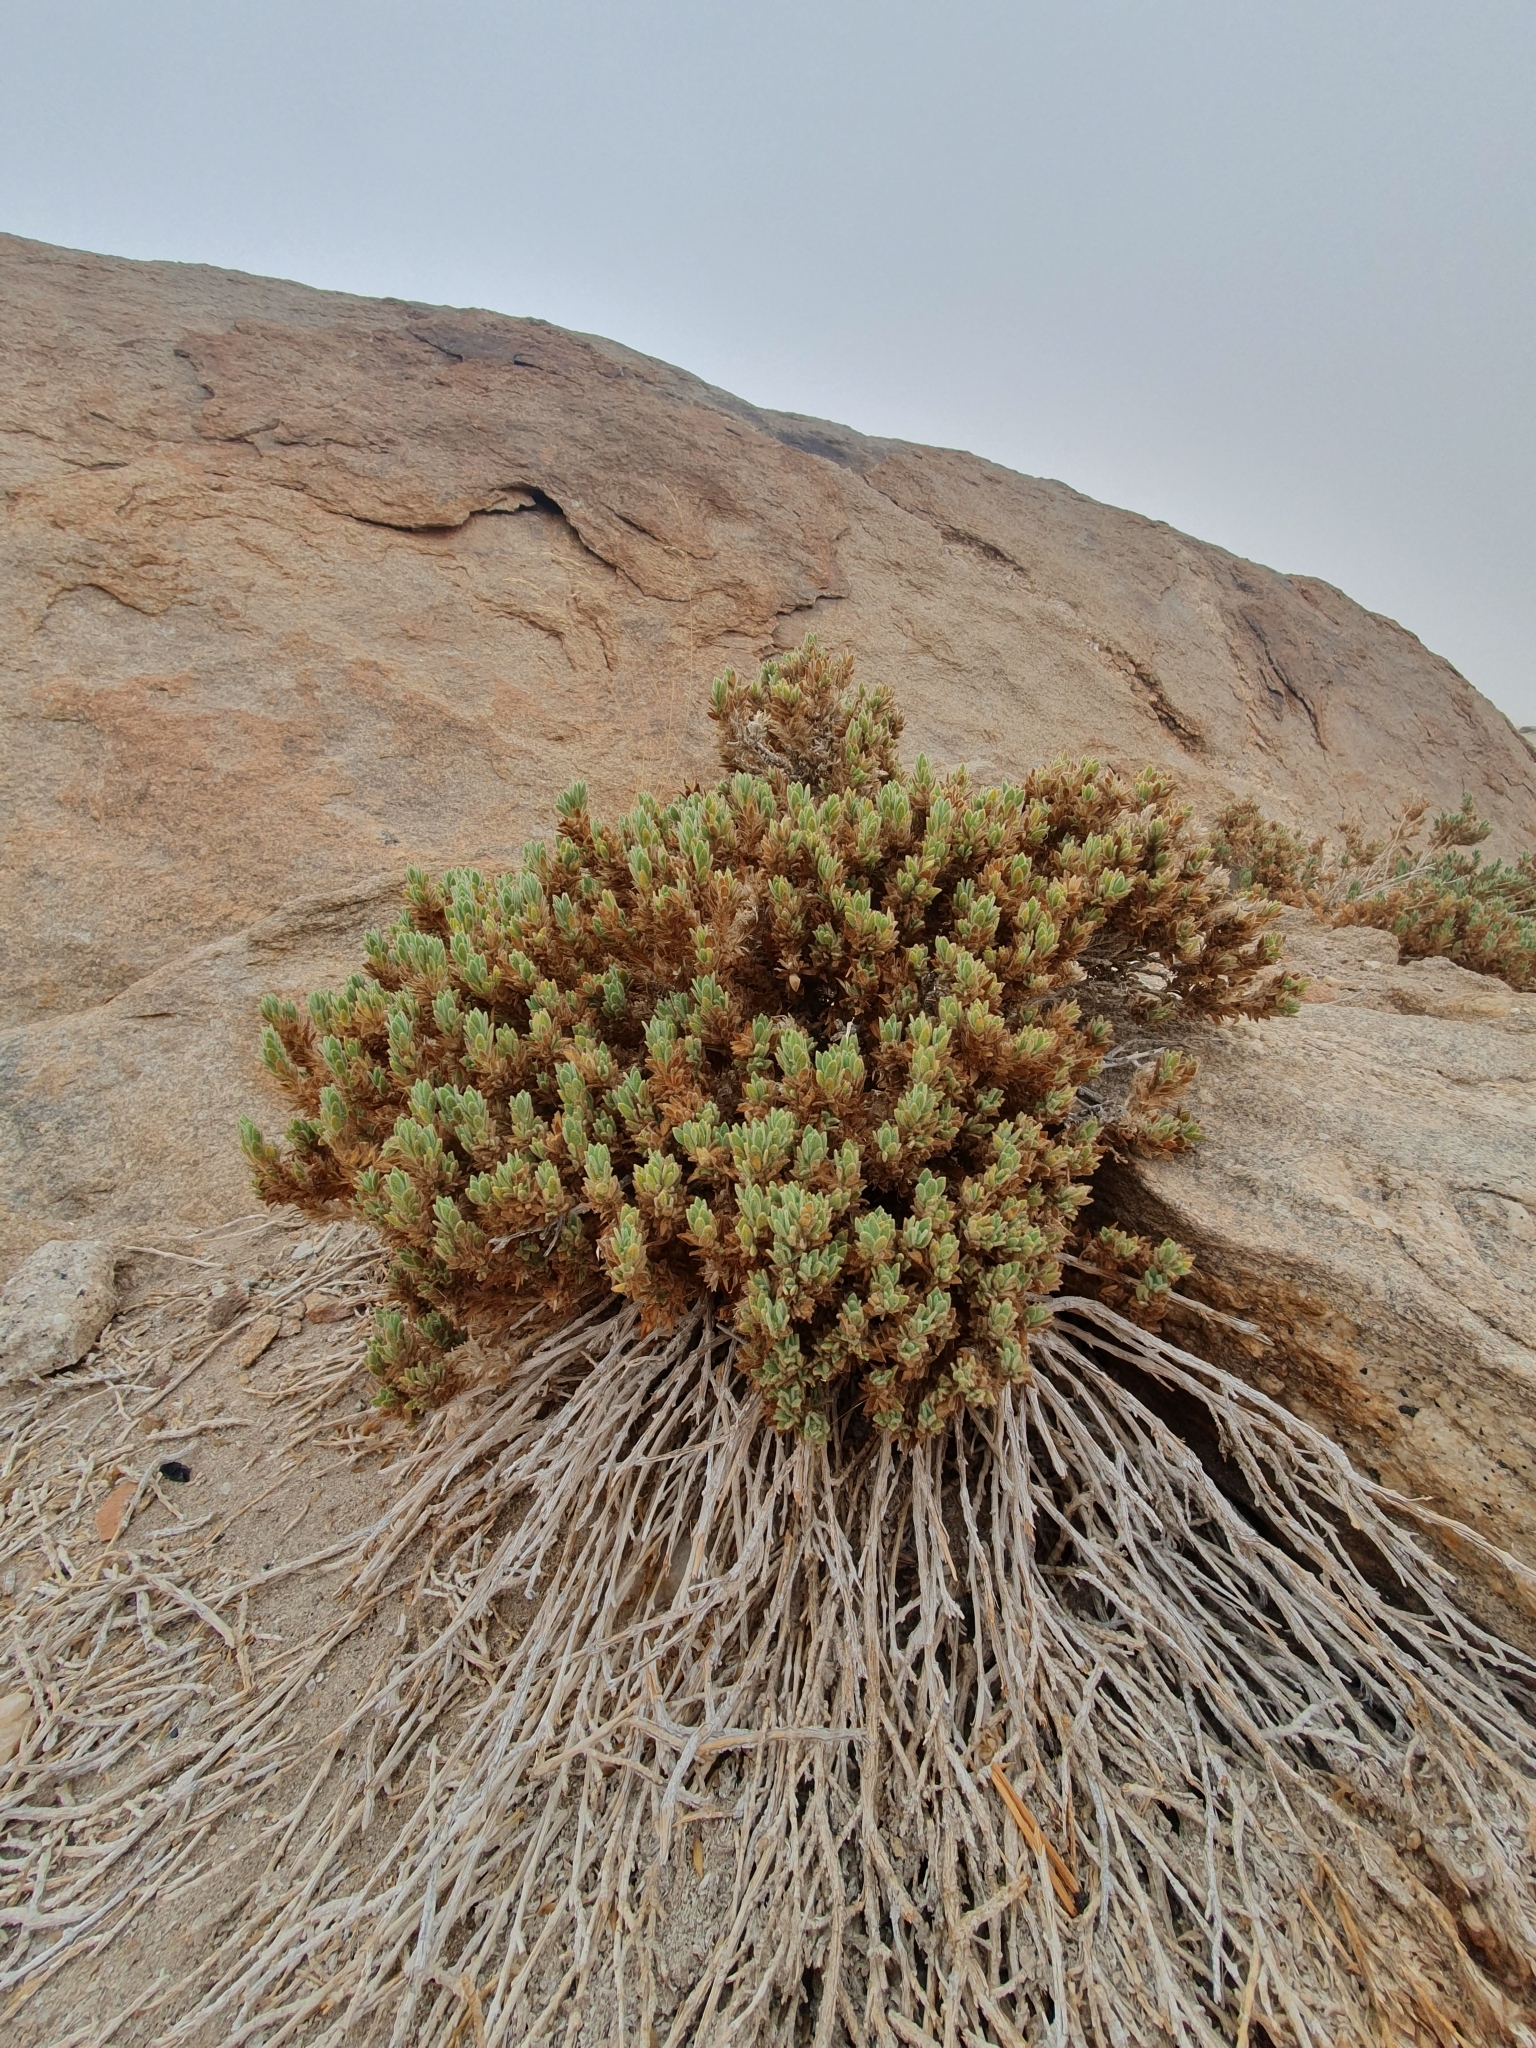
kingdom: Plantae
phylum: Tracheophyta
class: Magnoliopsida
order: Lamiales
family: Acanthaceae
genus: Pogonospermum
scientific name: Pogonospermum
